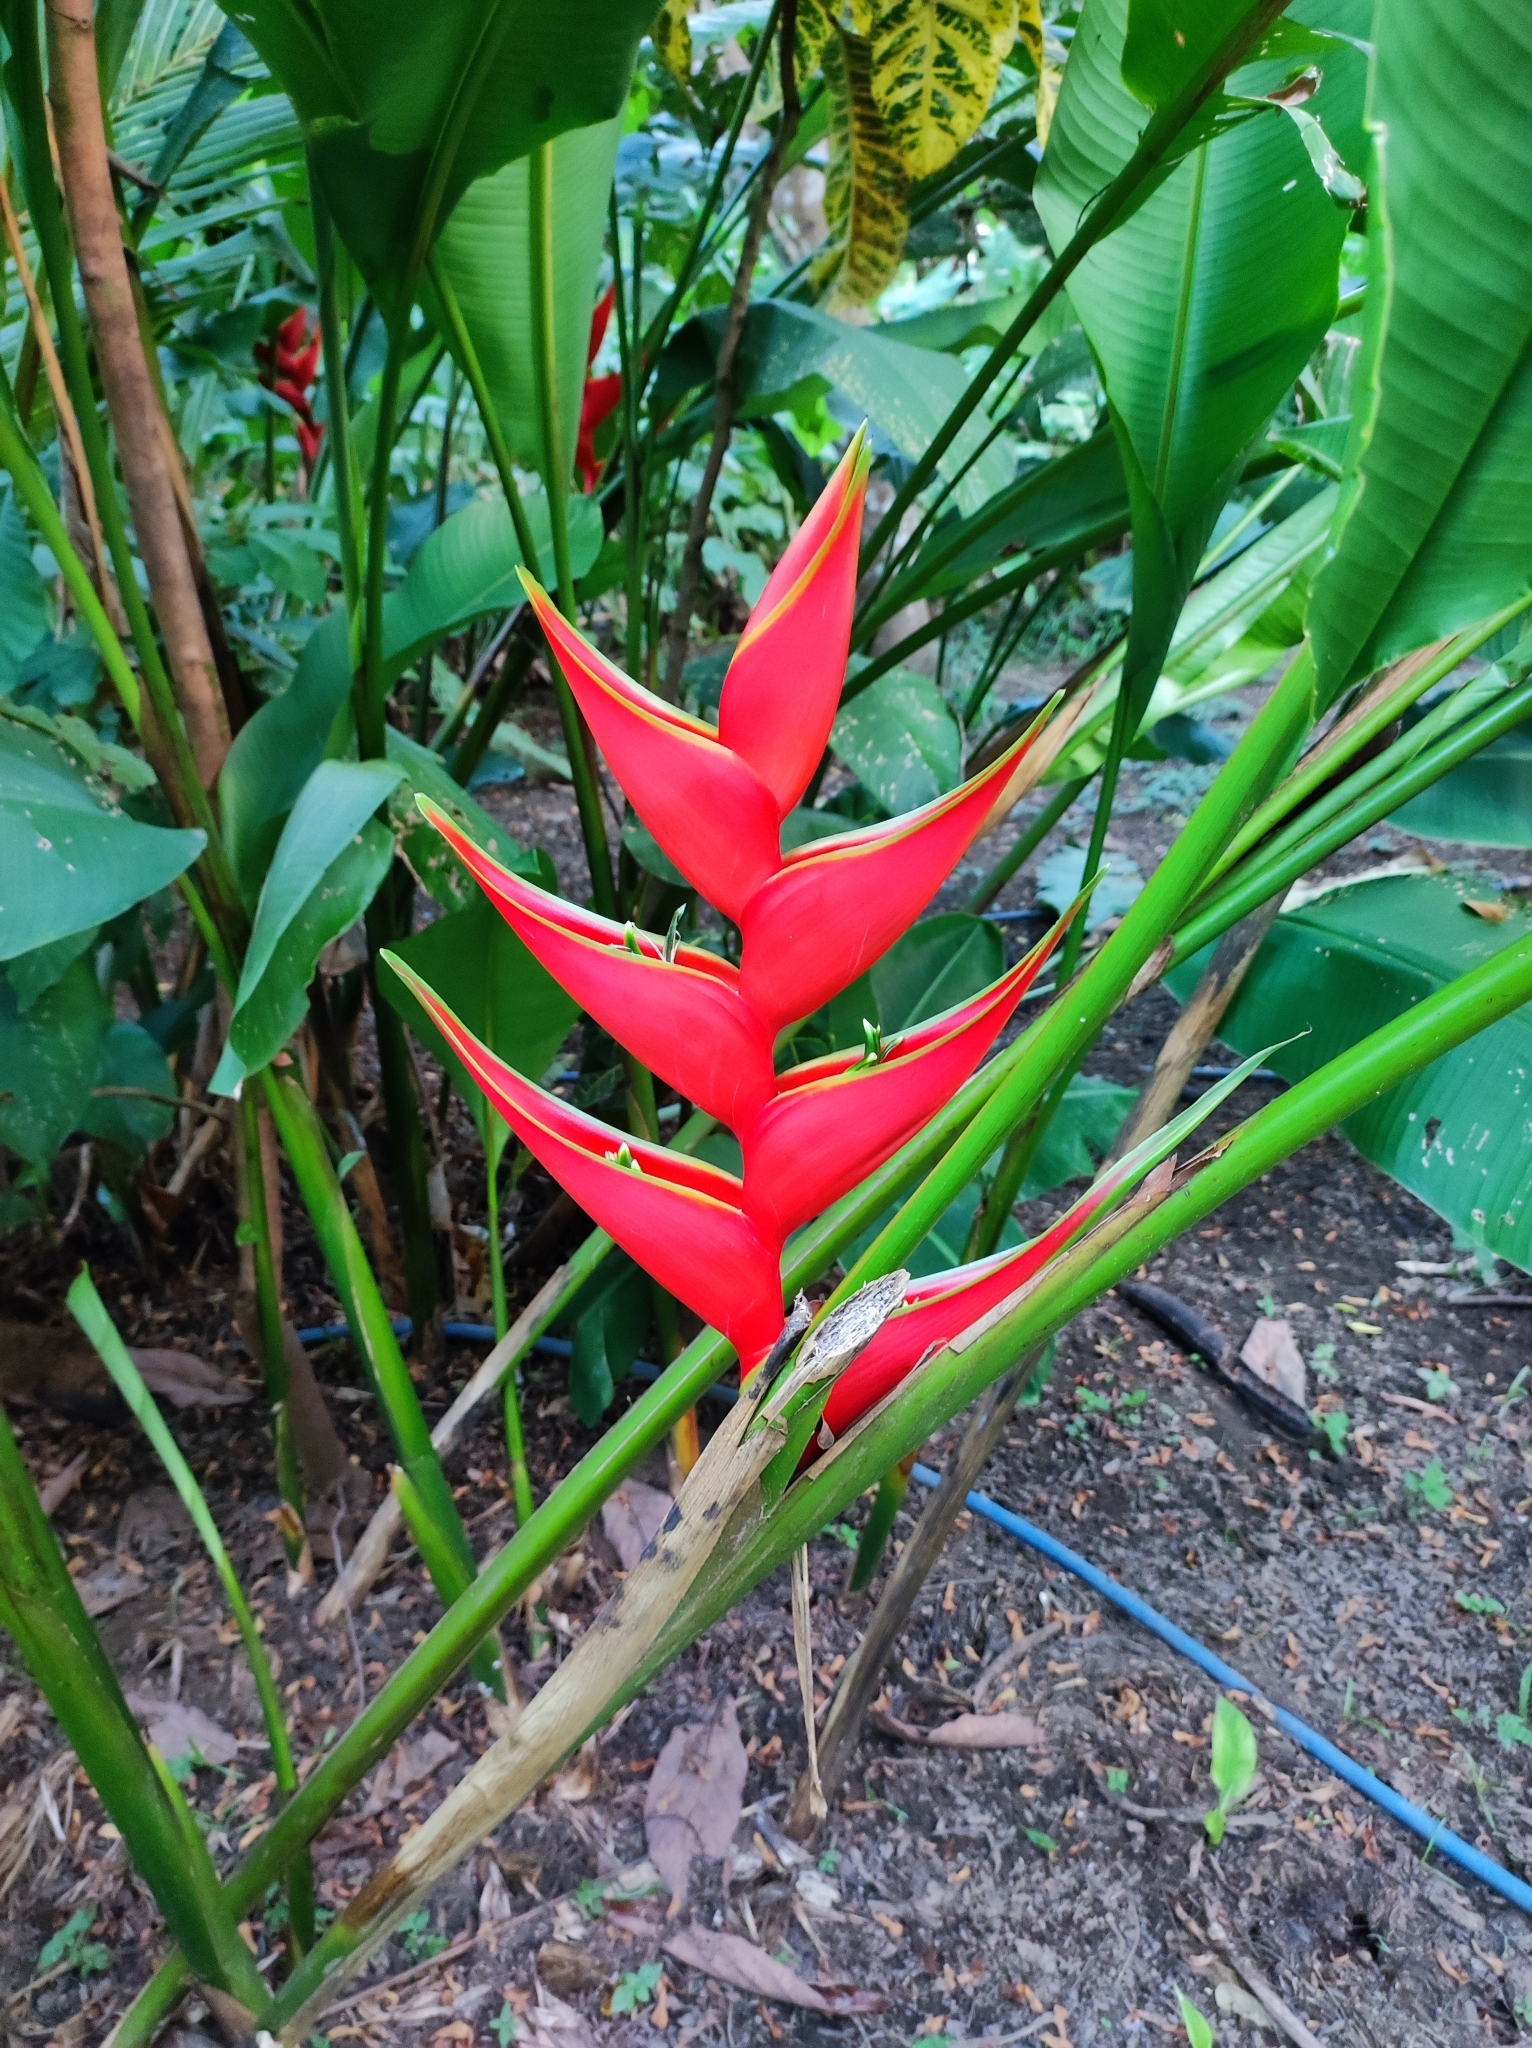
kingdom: Plantae
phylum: Tracheophyta
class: Liliopsida
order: Zingiberales
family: Heliconiaceae
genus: Heliconia
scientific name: Heliconia stricta
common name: Small lobster claw
